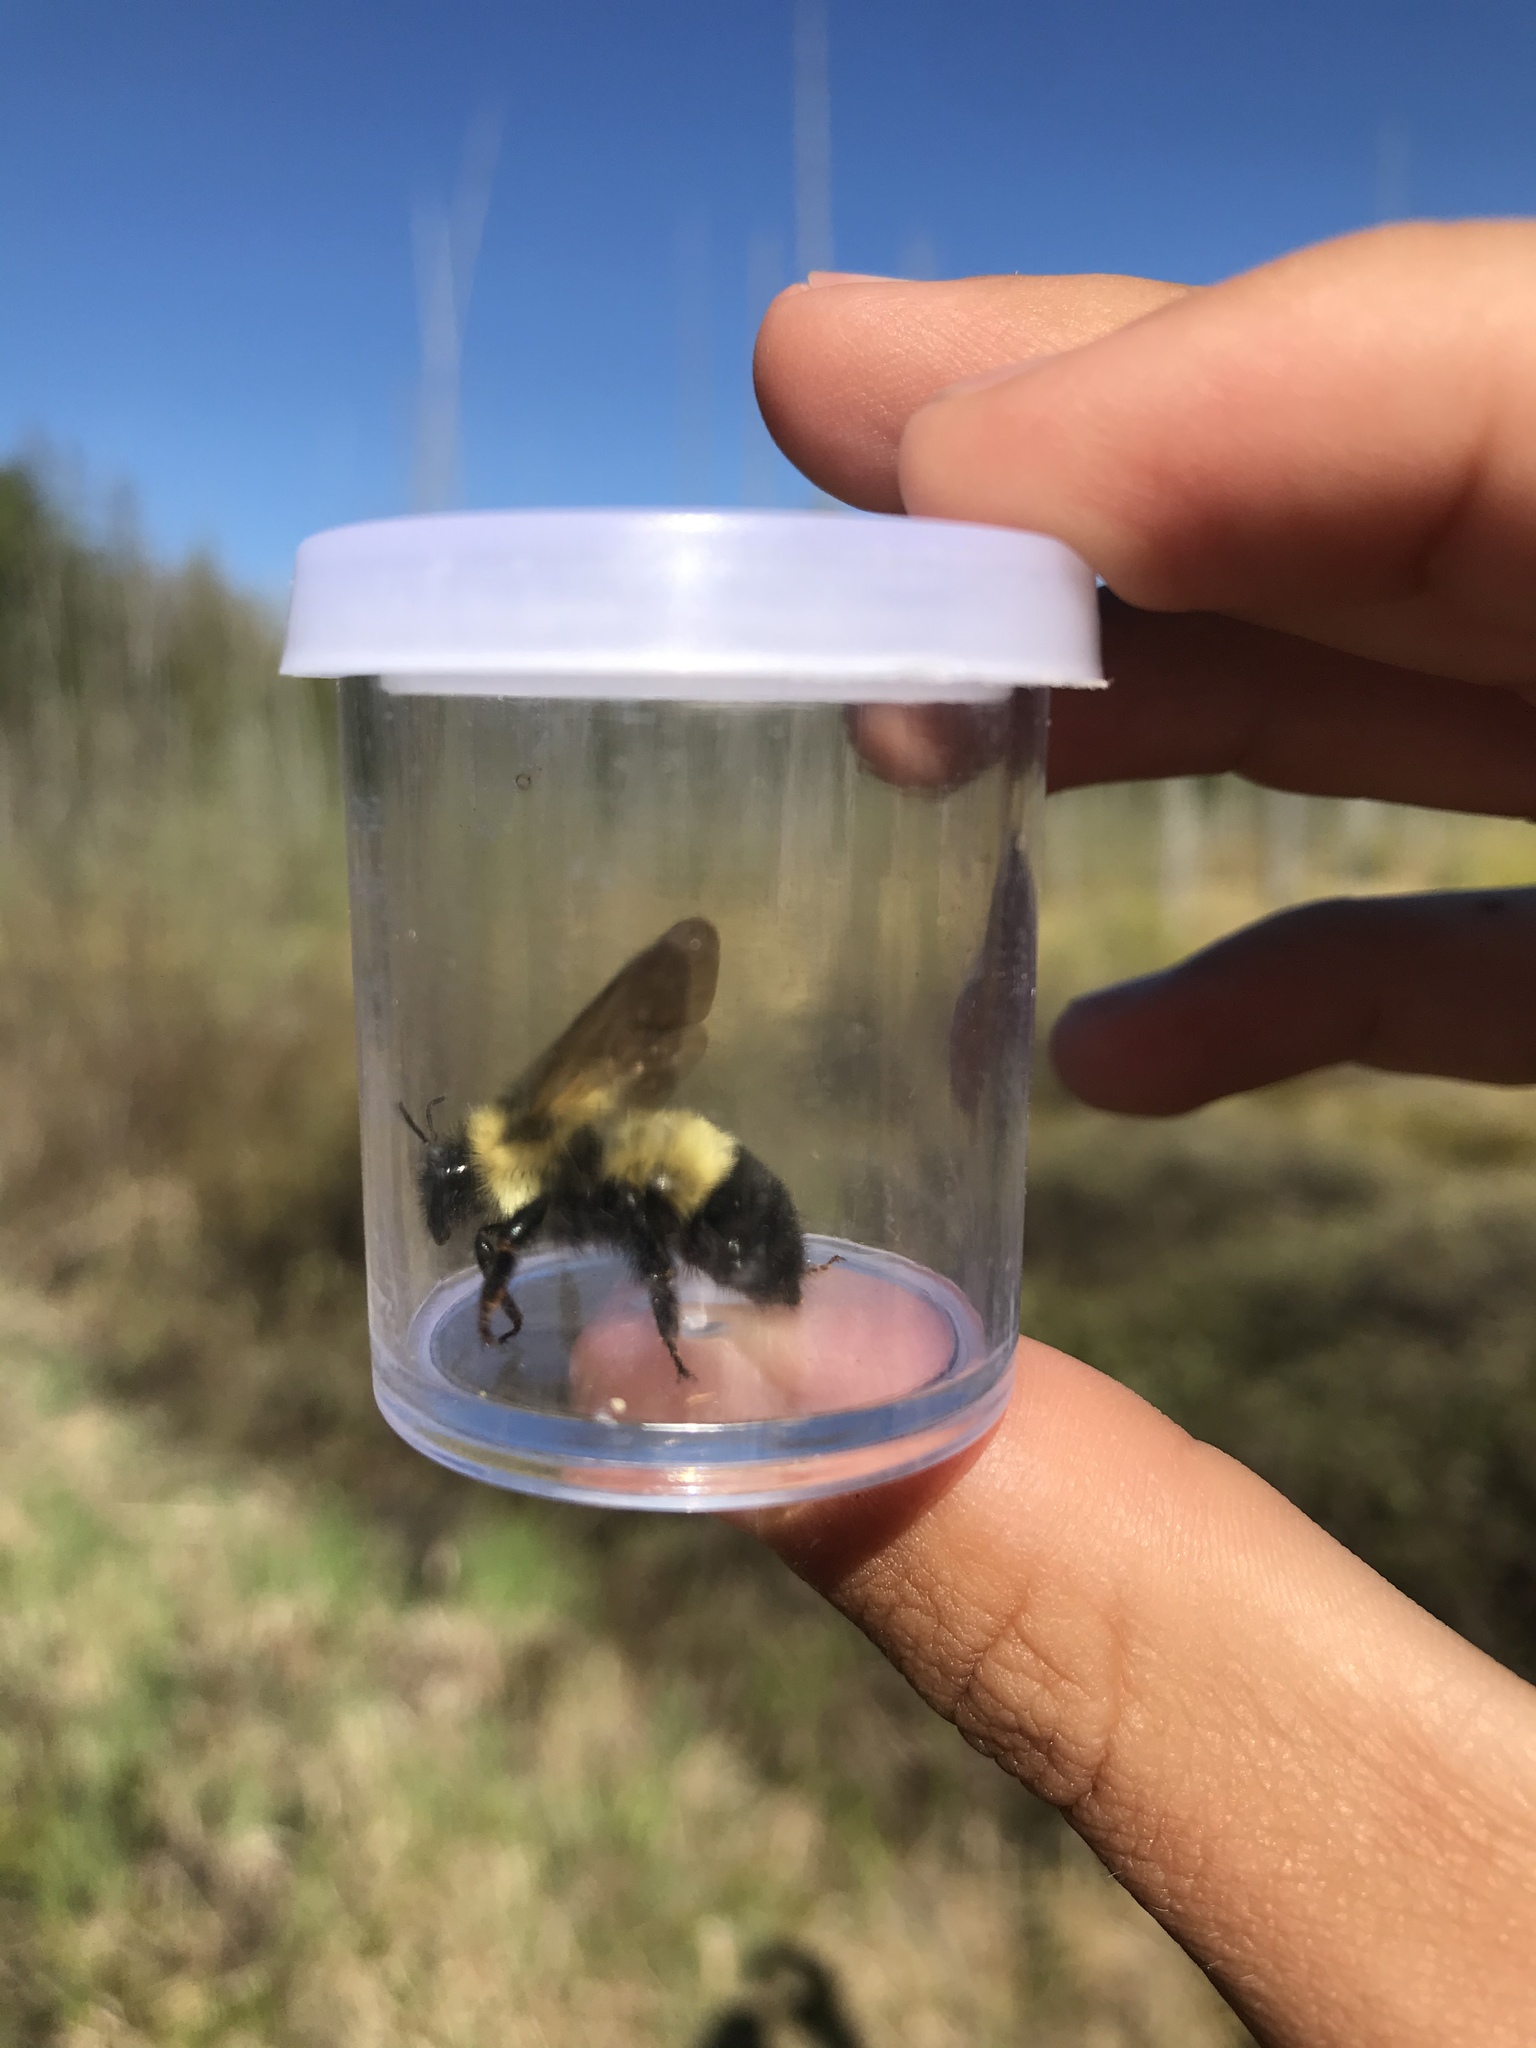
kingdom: Animalia
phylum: Arthropoda
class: Insecta
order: Hymenoptera
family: Apidae
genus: Bombus
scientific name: Bombus vagans
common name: Half-black bumble bee
